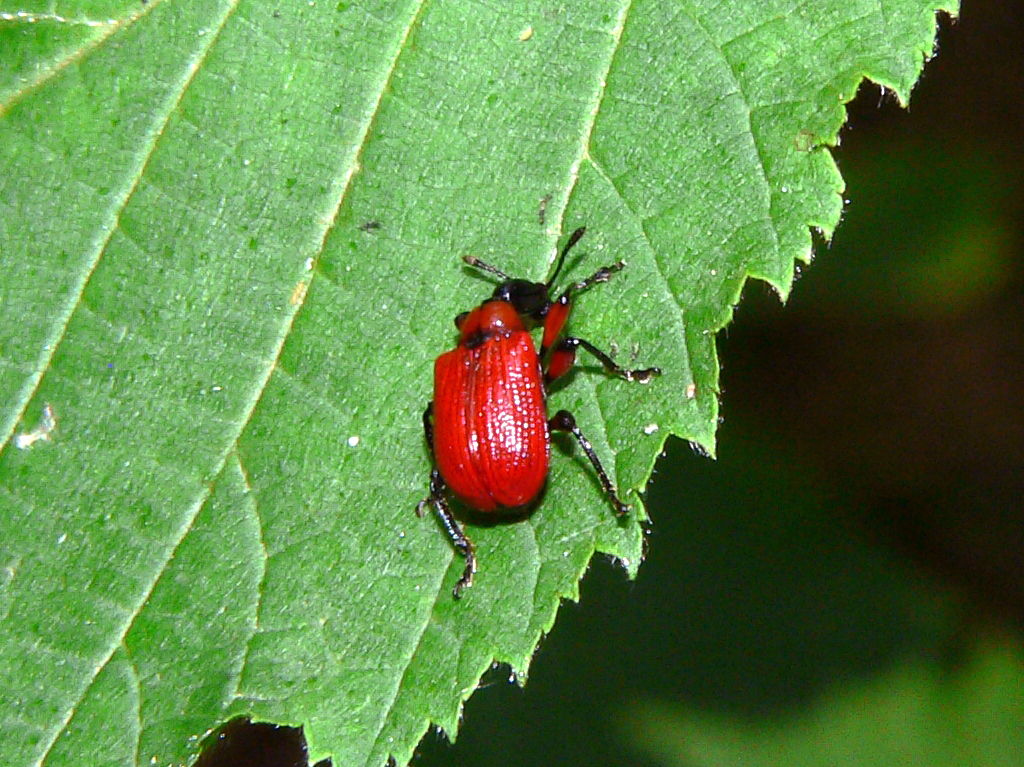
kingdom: Animalia
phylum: Arthropoda
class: Insecta
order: Coleoptera
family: Attelabidae
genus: Apoderus
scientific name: Apoderus coryli
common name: Hazel leaf roller
